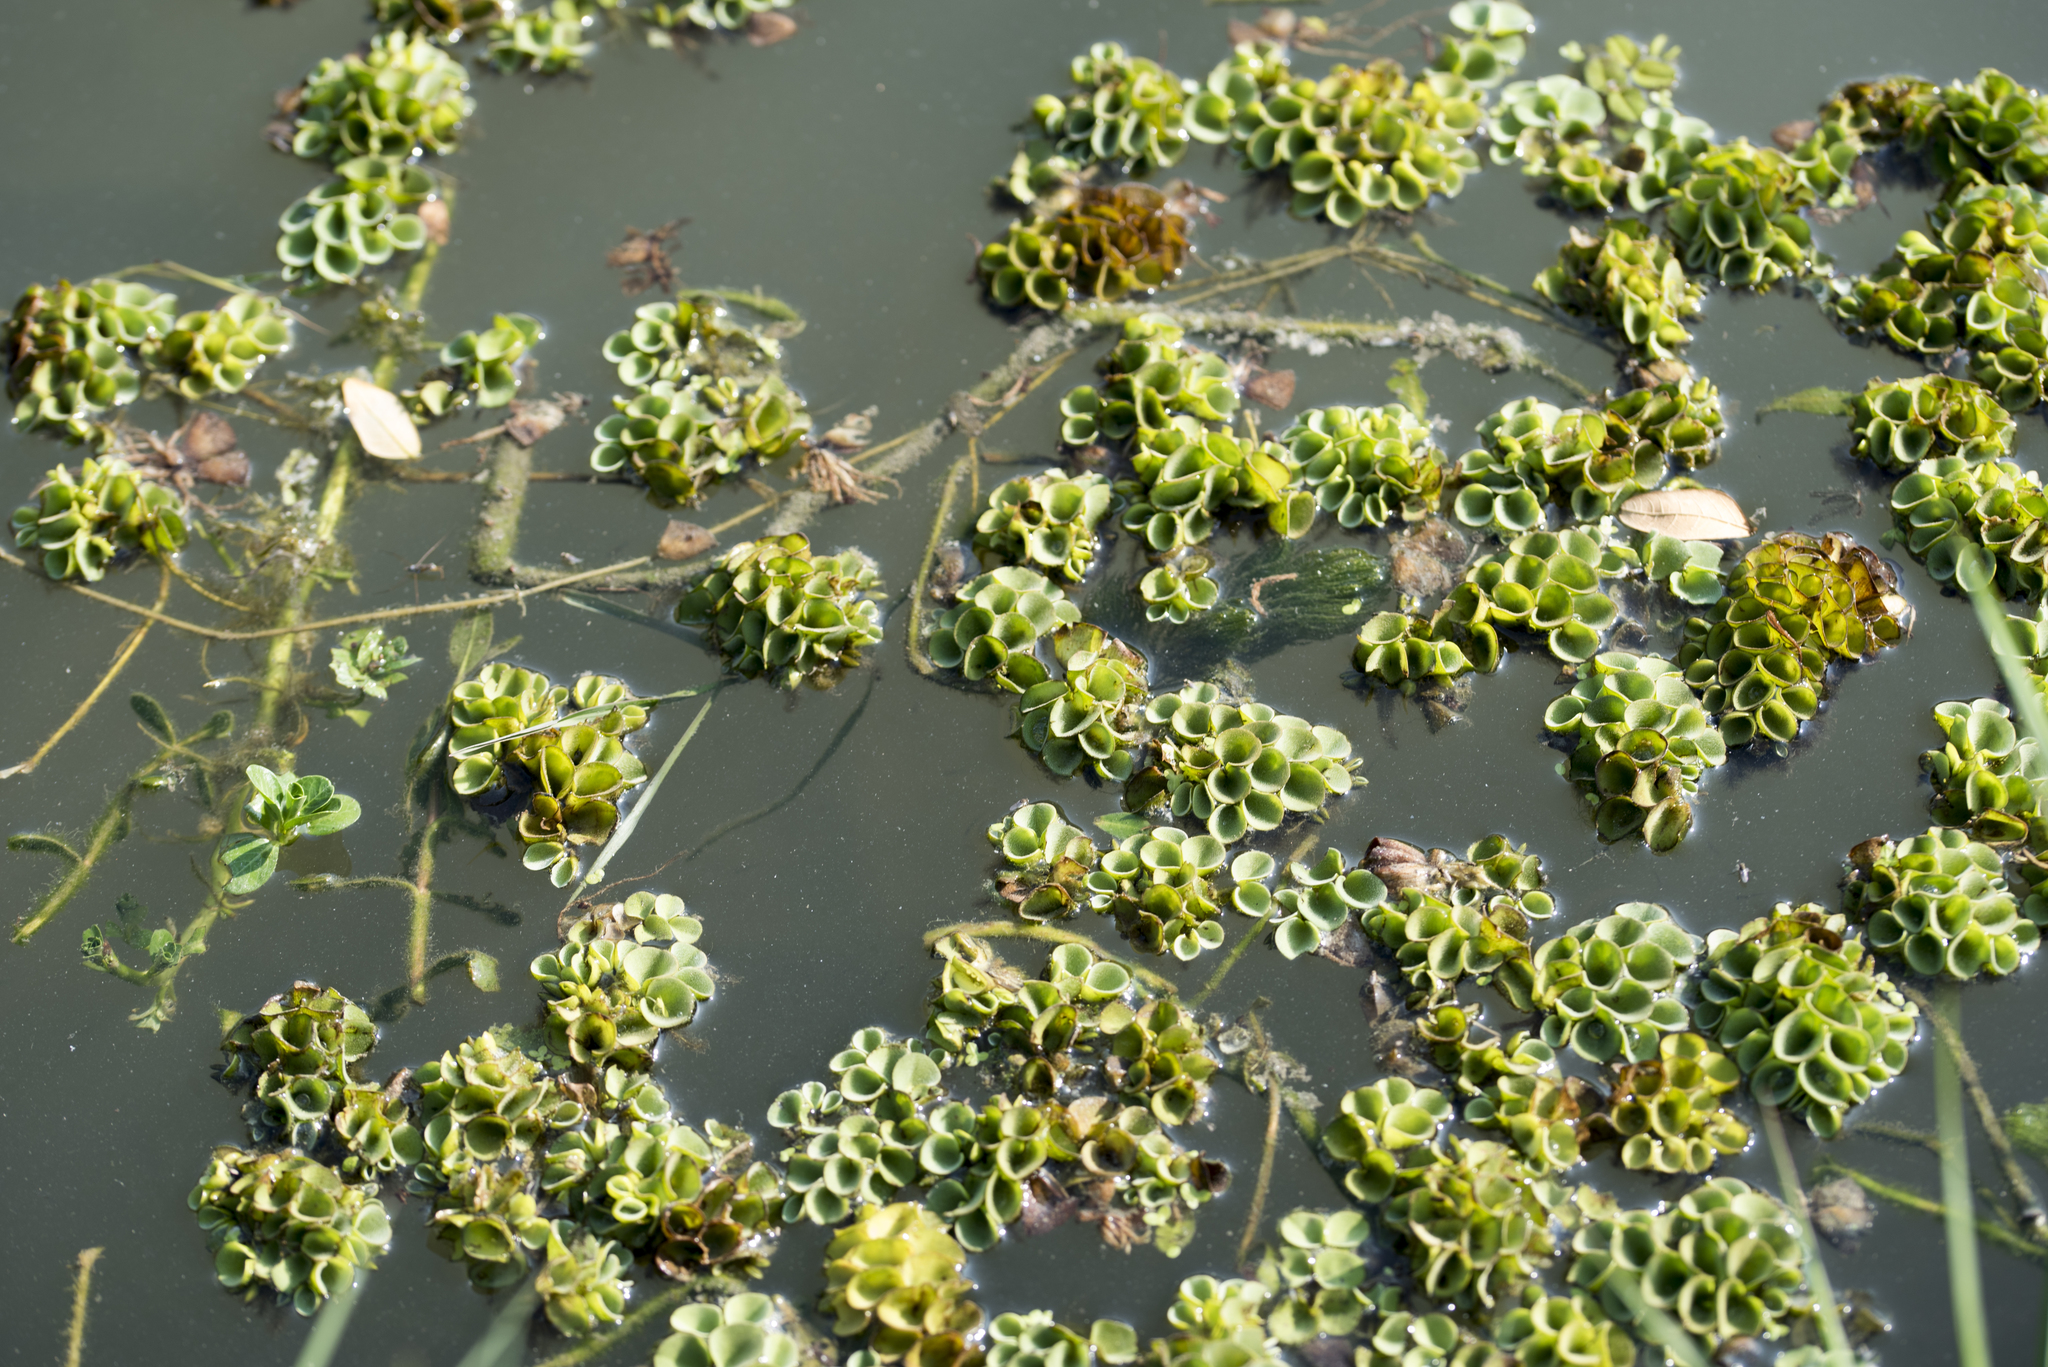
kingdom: Plantae
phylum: Tracheophyta
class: Polypodiopsida
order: Salviniales
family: Salviniaceae
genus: Salvinia
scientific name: Salvinia cucullata
